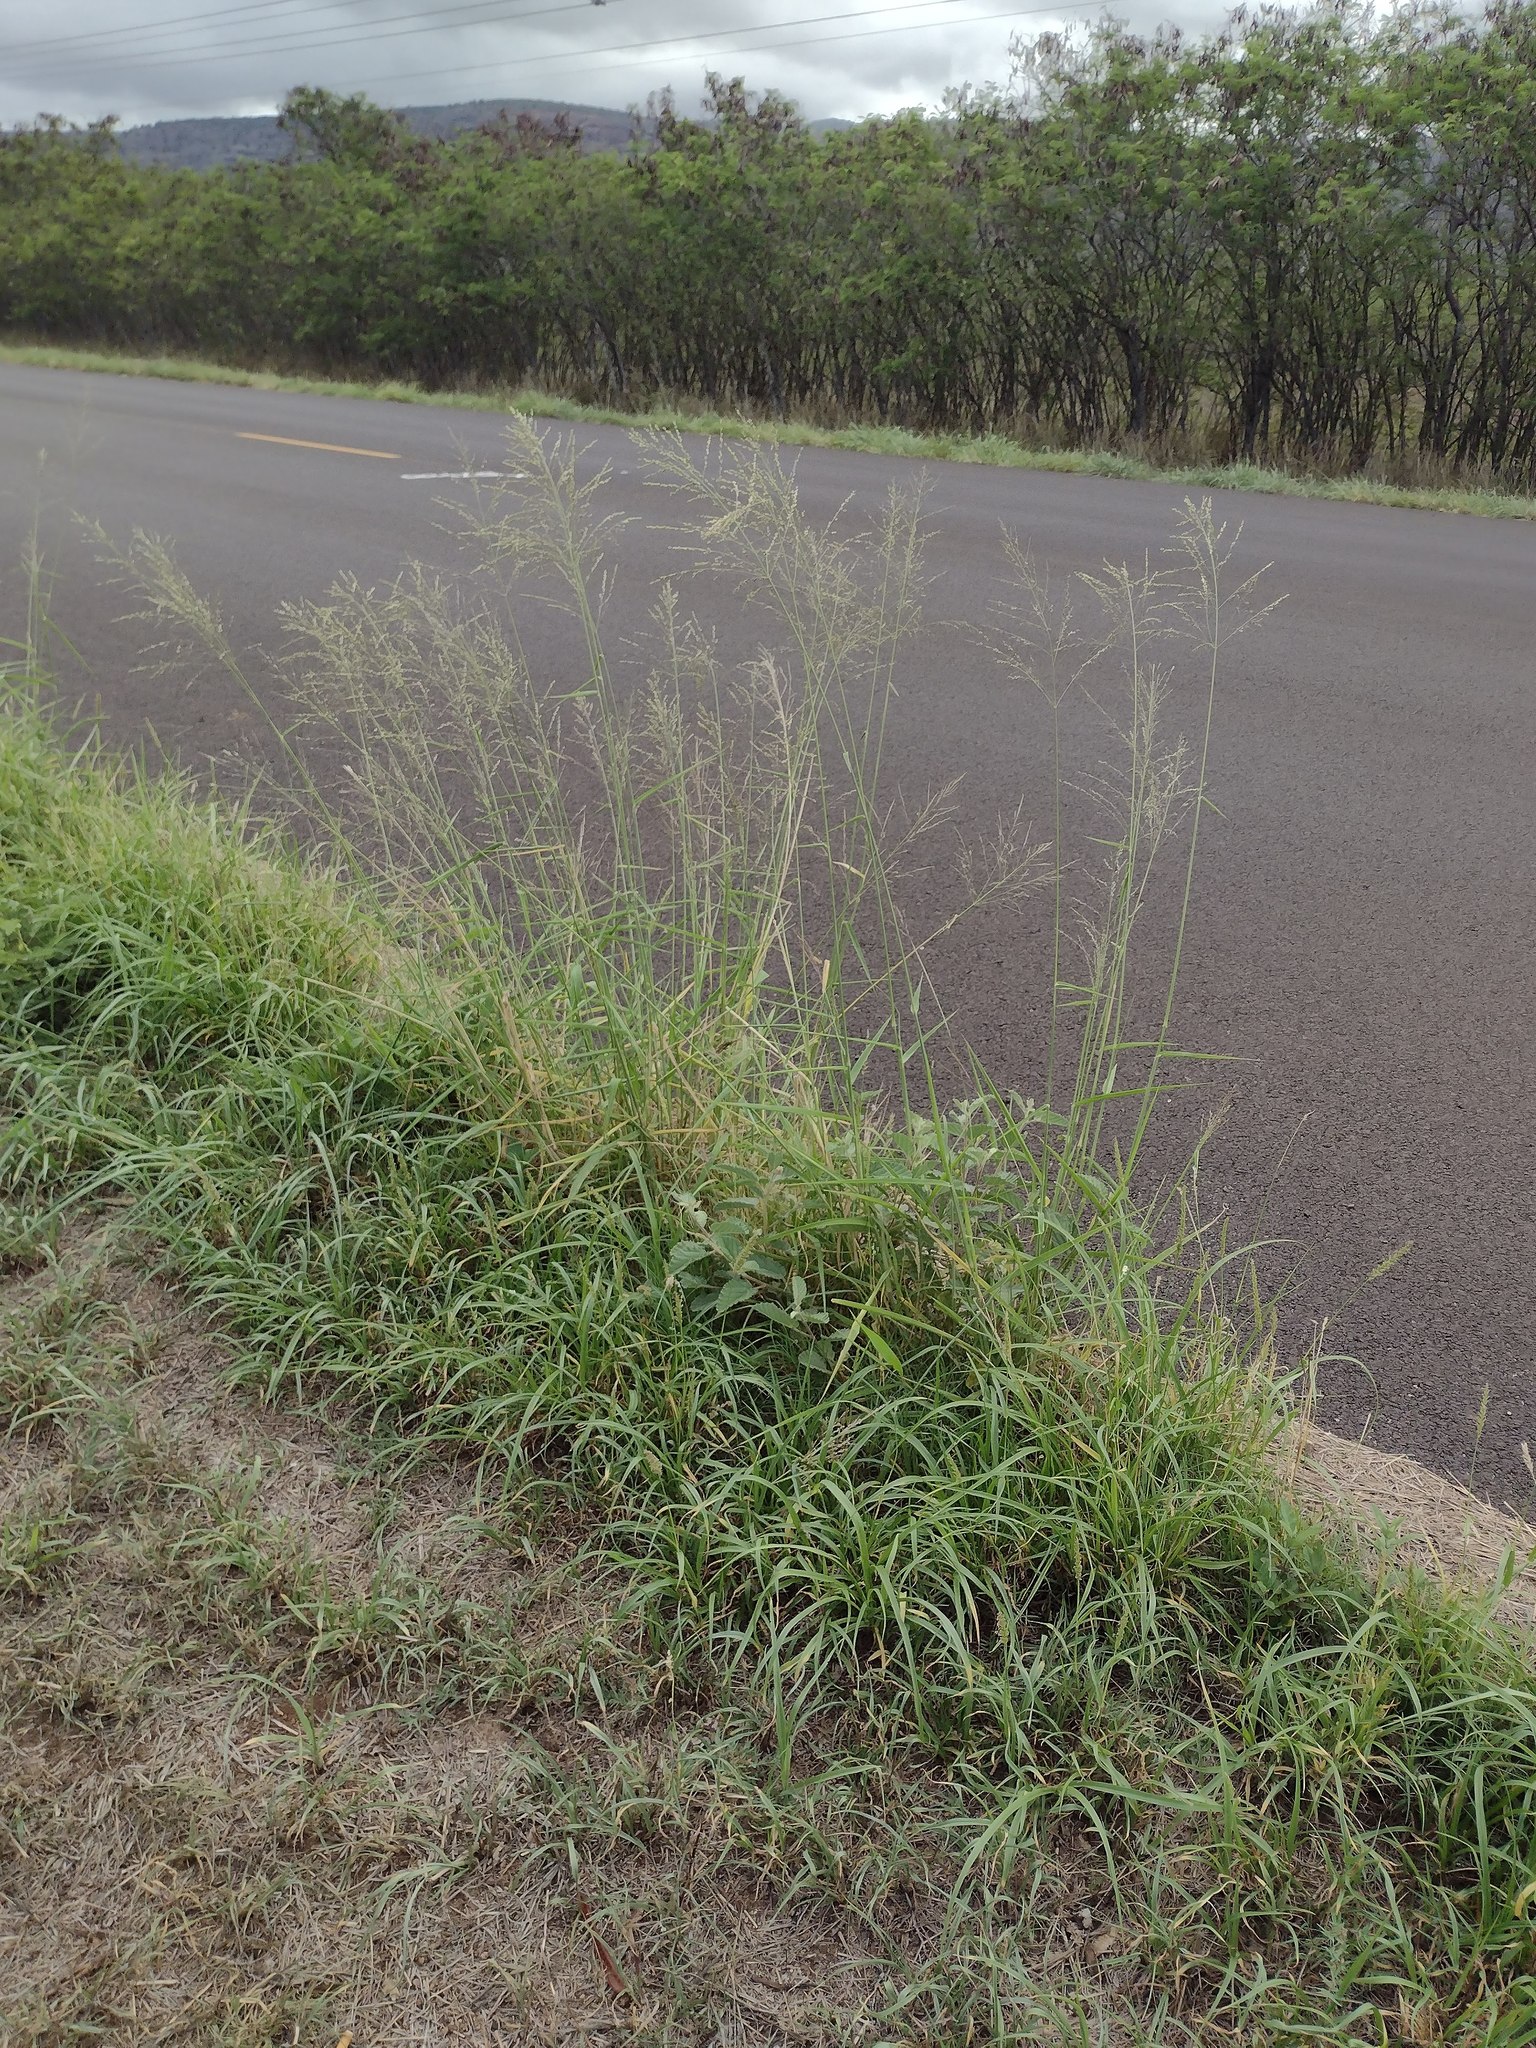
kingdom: Plantae
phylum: Tracheophyta
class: Liliopsida
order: Poales
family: Poaceae
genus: Megathyrsus
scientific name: Megathyrsus maximus
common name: Guineagrass
